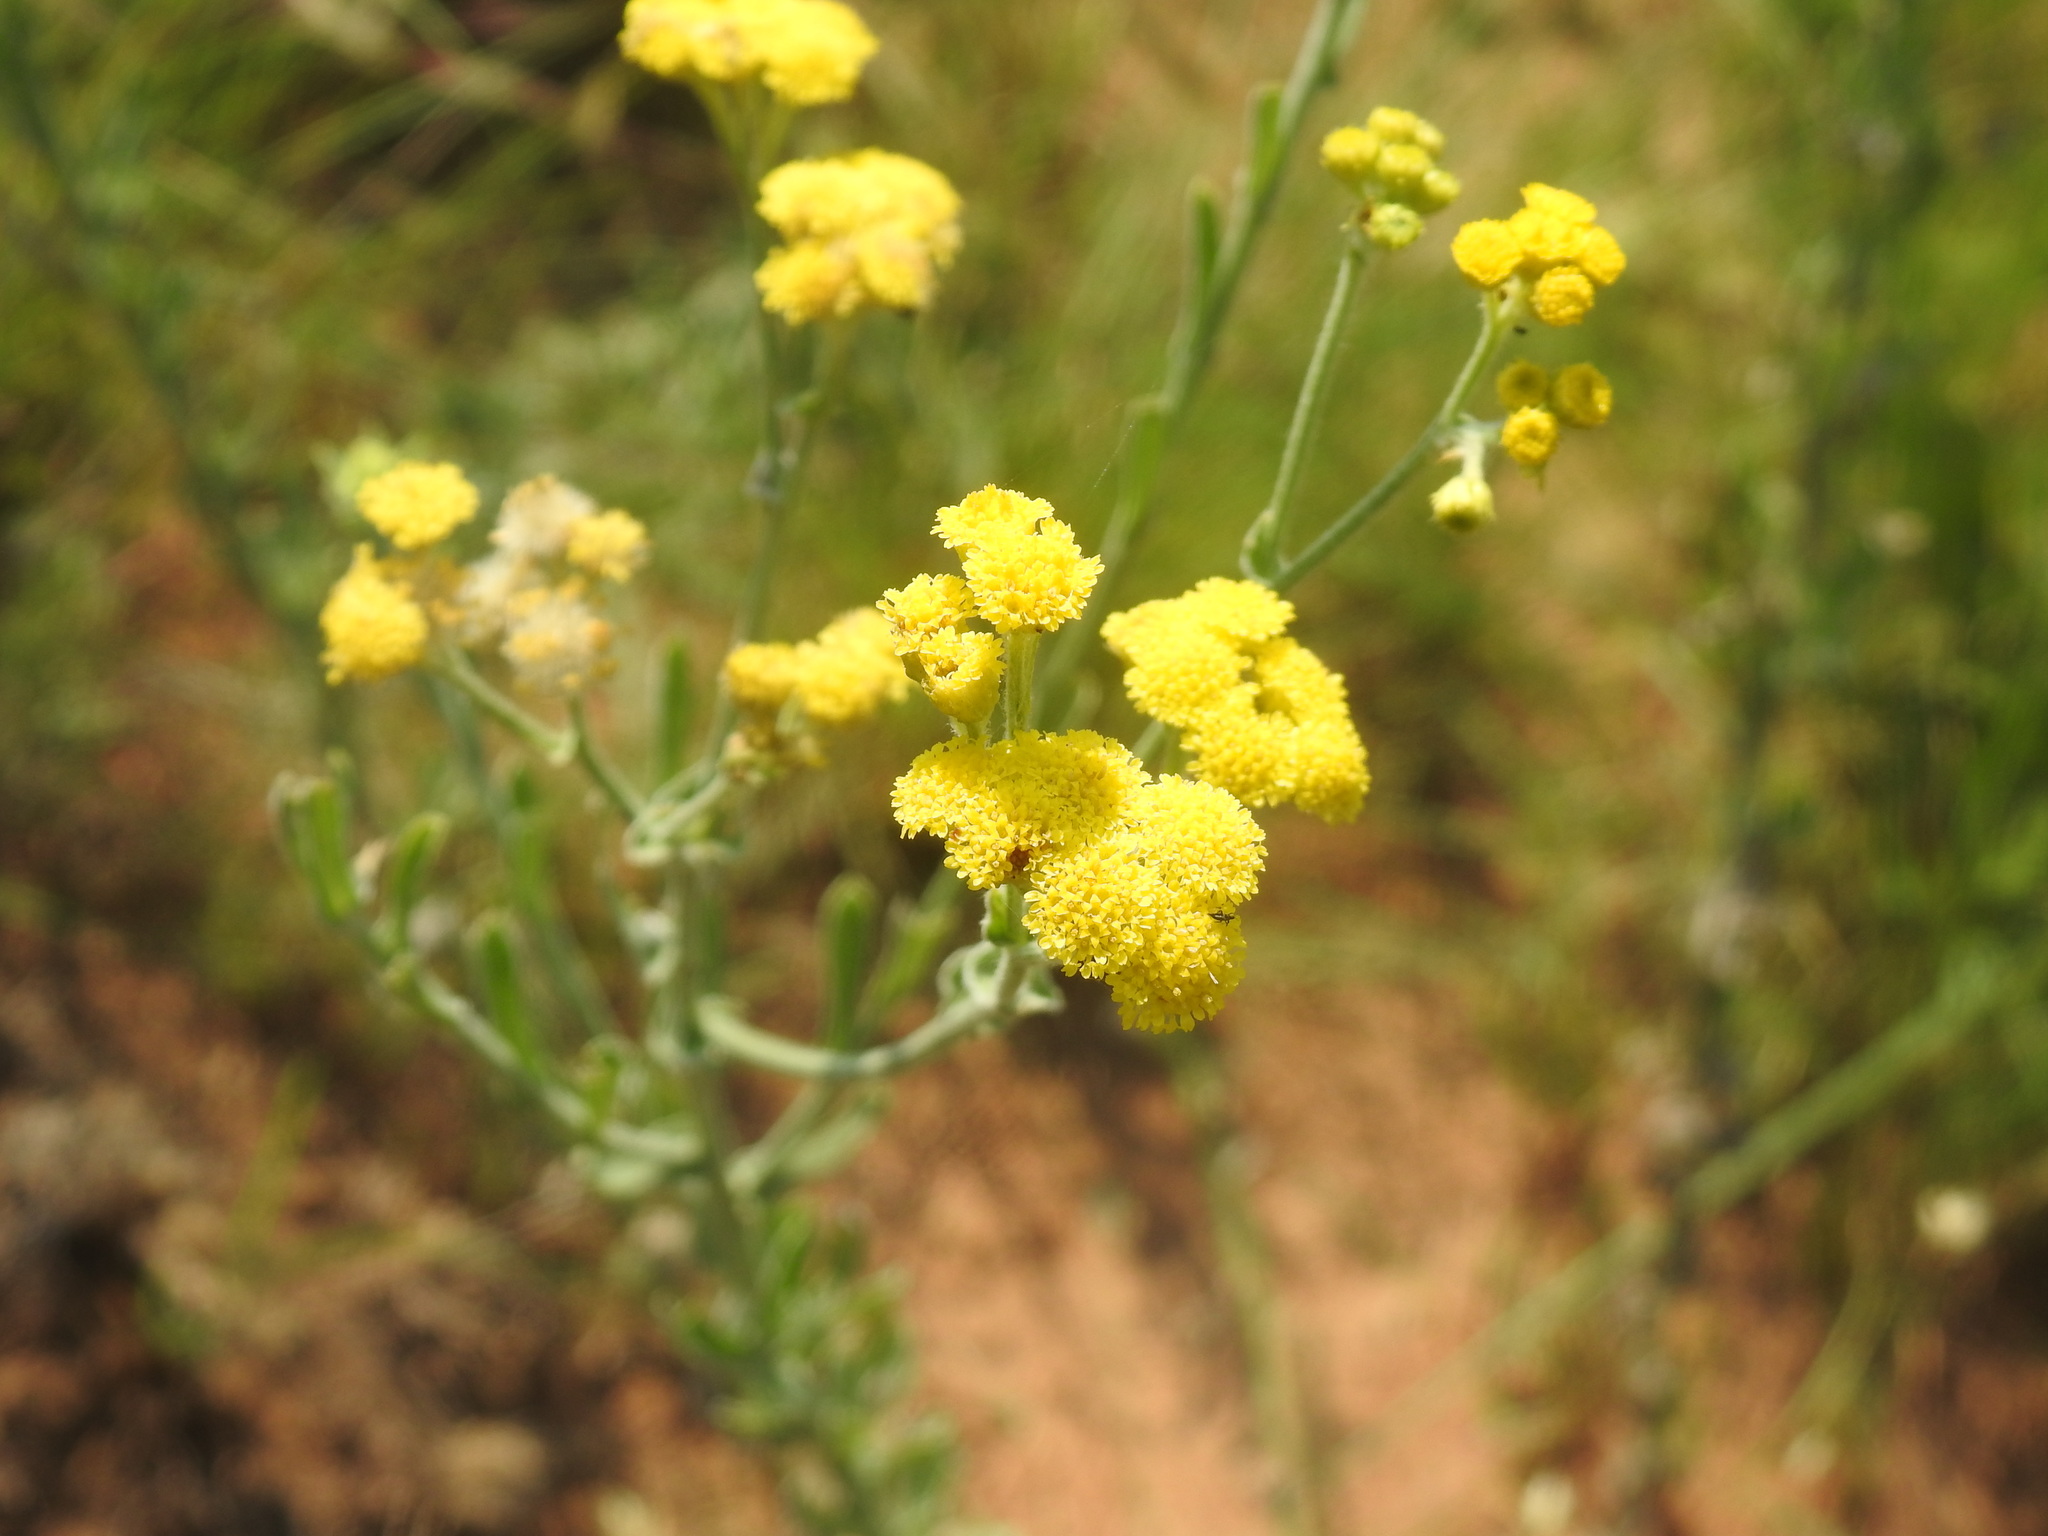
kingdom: Plantae
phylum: Tracheophyta
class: Magnoliopsida
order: Asterales
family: Asteraceae
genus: Nidorella
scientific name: Nidorella hottentotica
